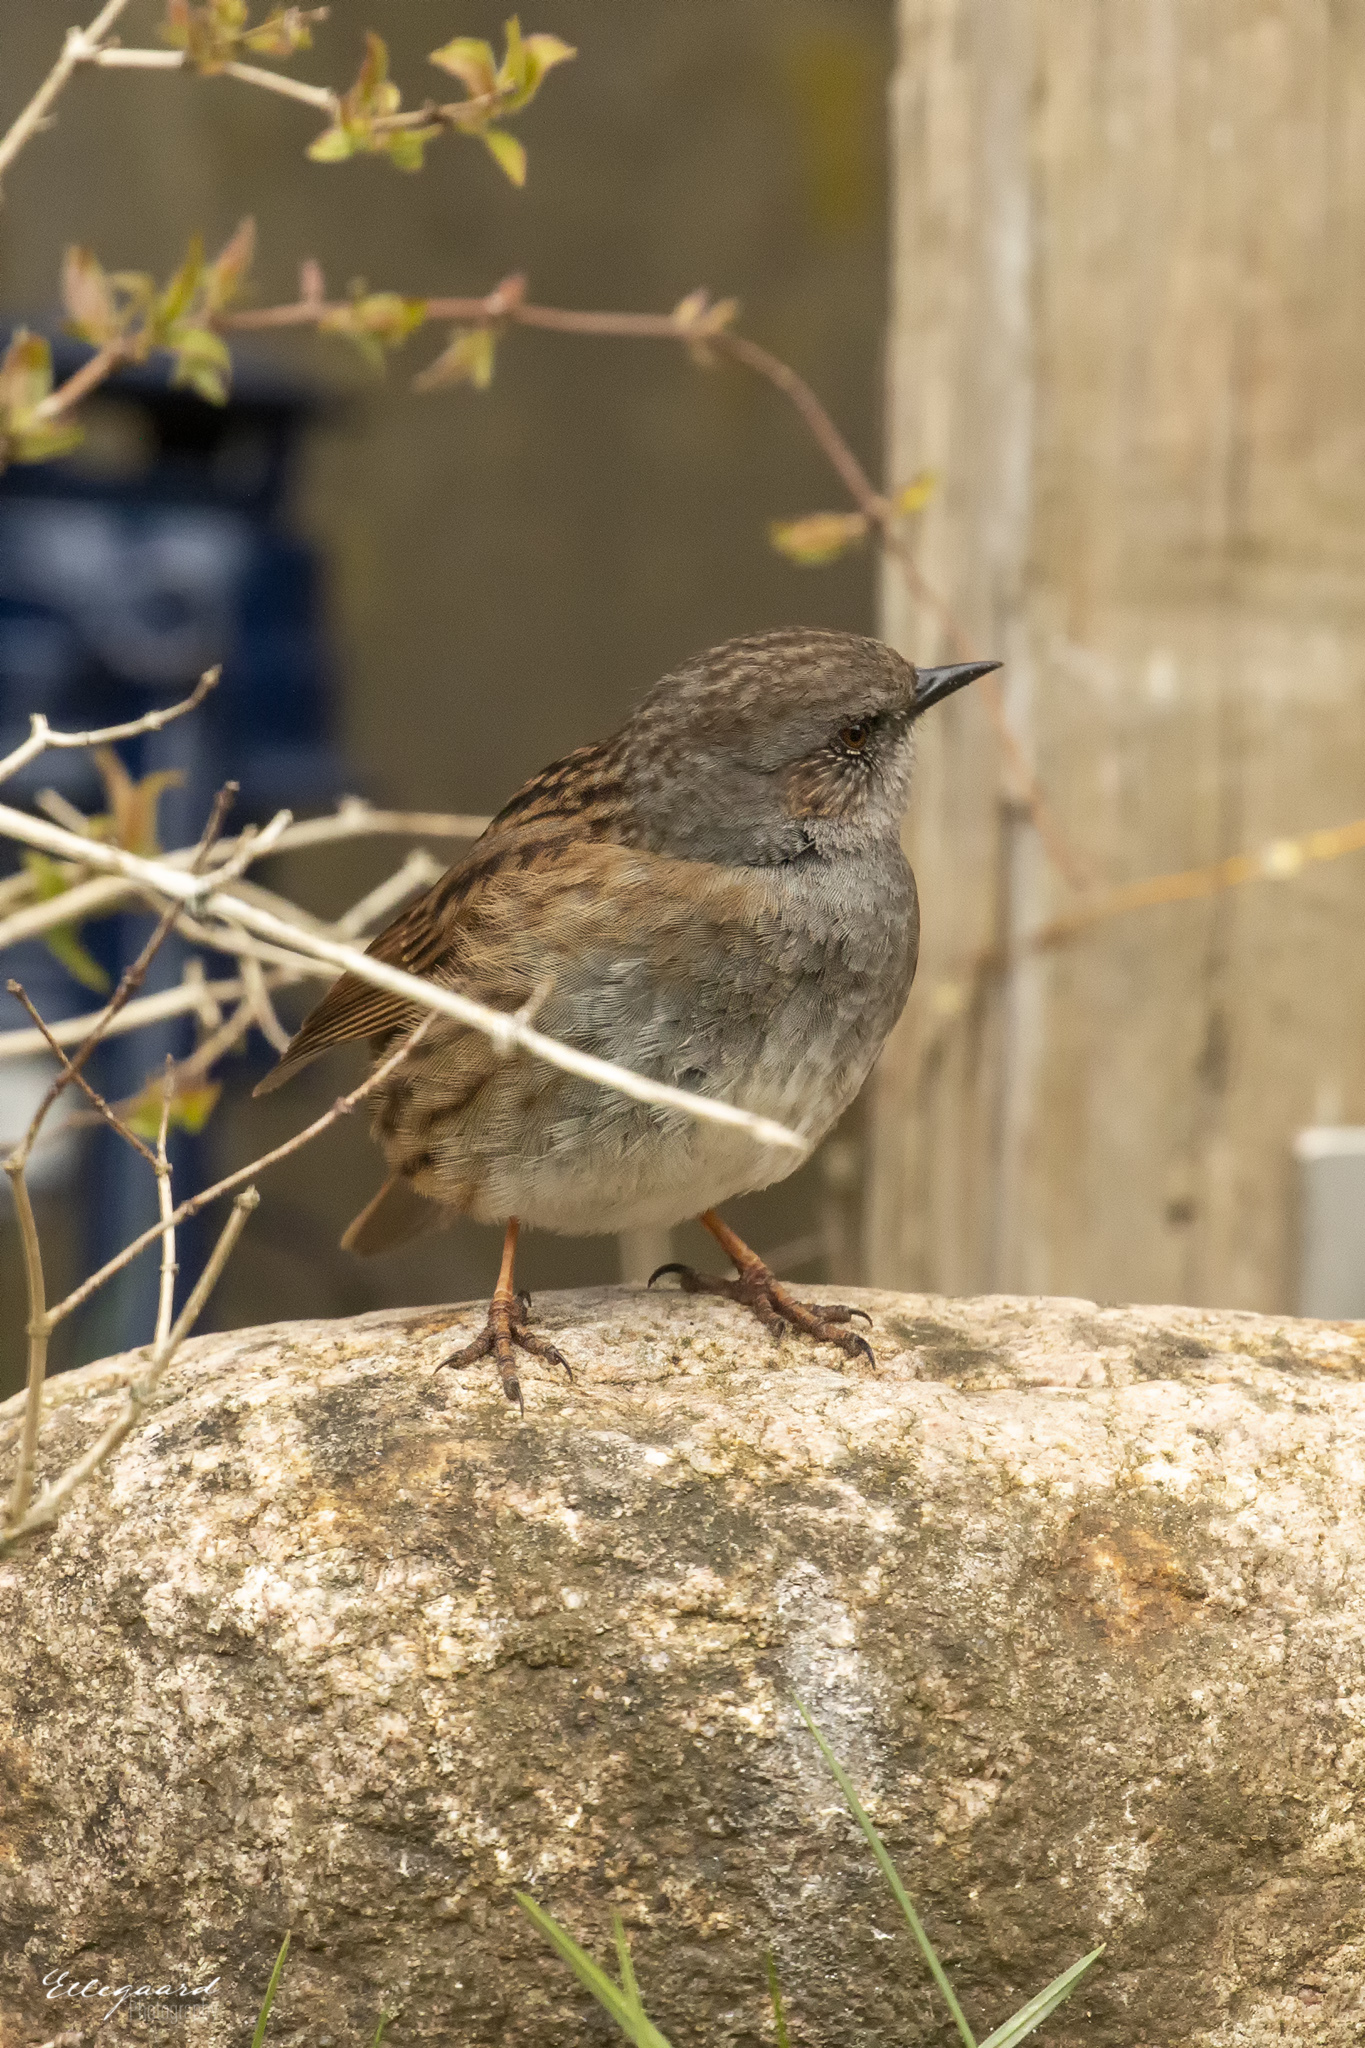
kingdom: Animalia
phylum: Chordata
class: Aves
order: Passeriformes
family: Prunellidae
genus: Prunella
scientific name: Prunella modularis
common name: Dunnock
